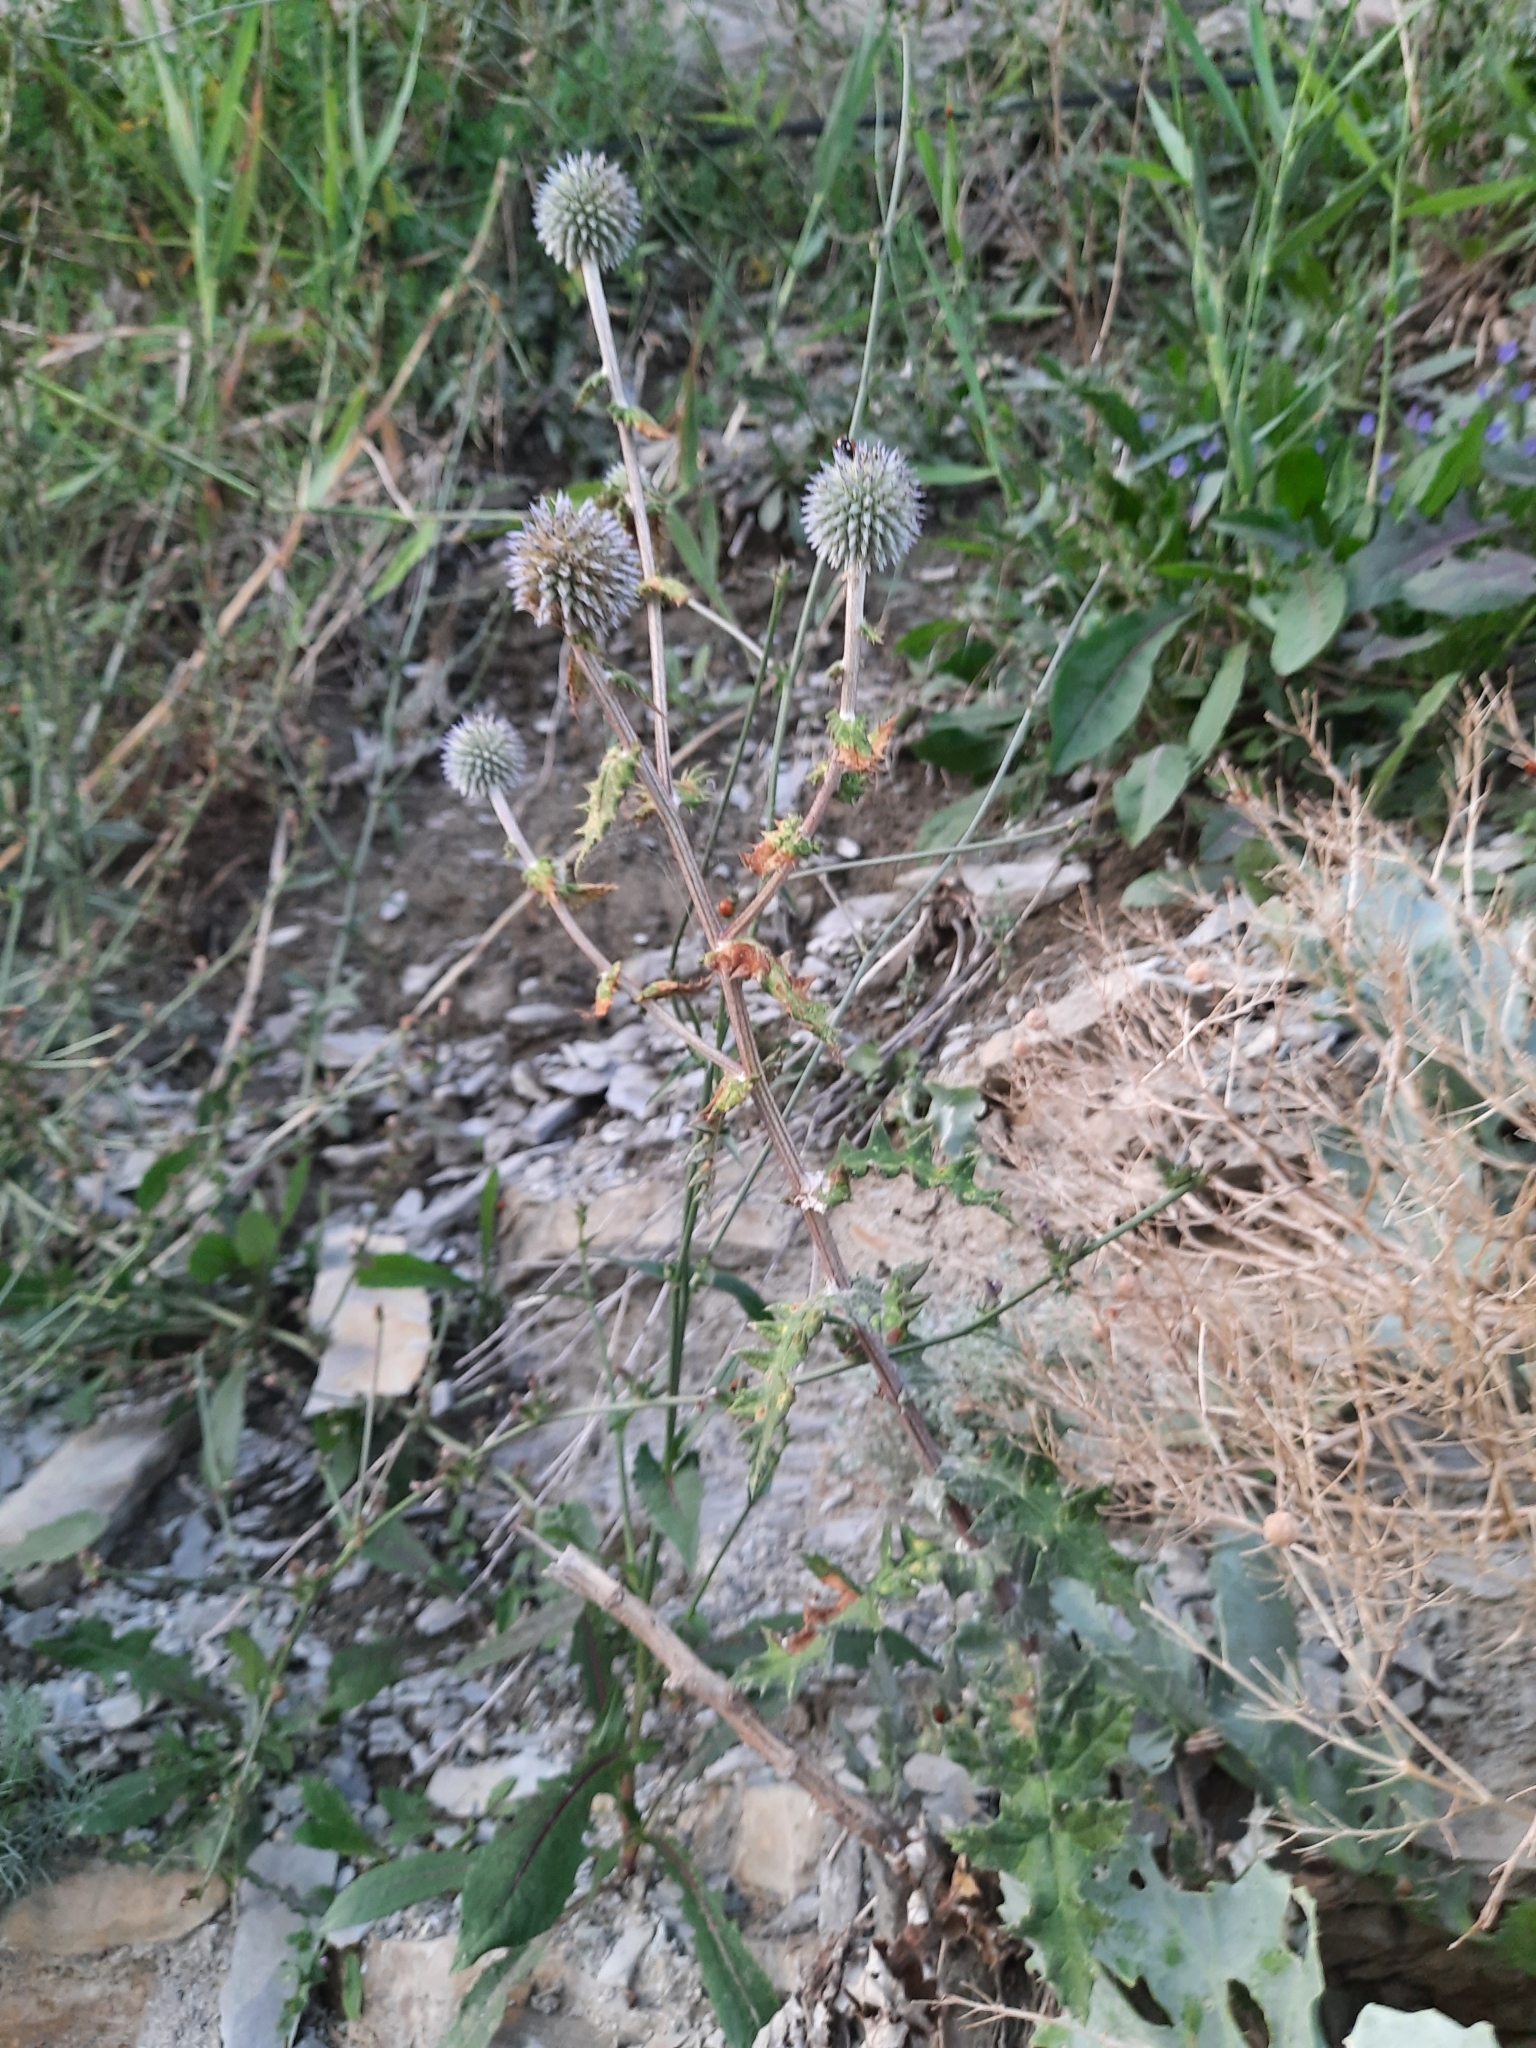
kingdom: Plantae
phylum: Tracheophyta
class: Magnoliopsida
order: Asterales
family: Asteraceae
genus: Echinops
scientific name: Echinops sphaerocephalus
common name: Glandular globe-thistle
